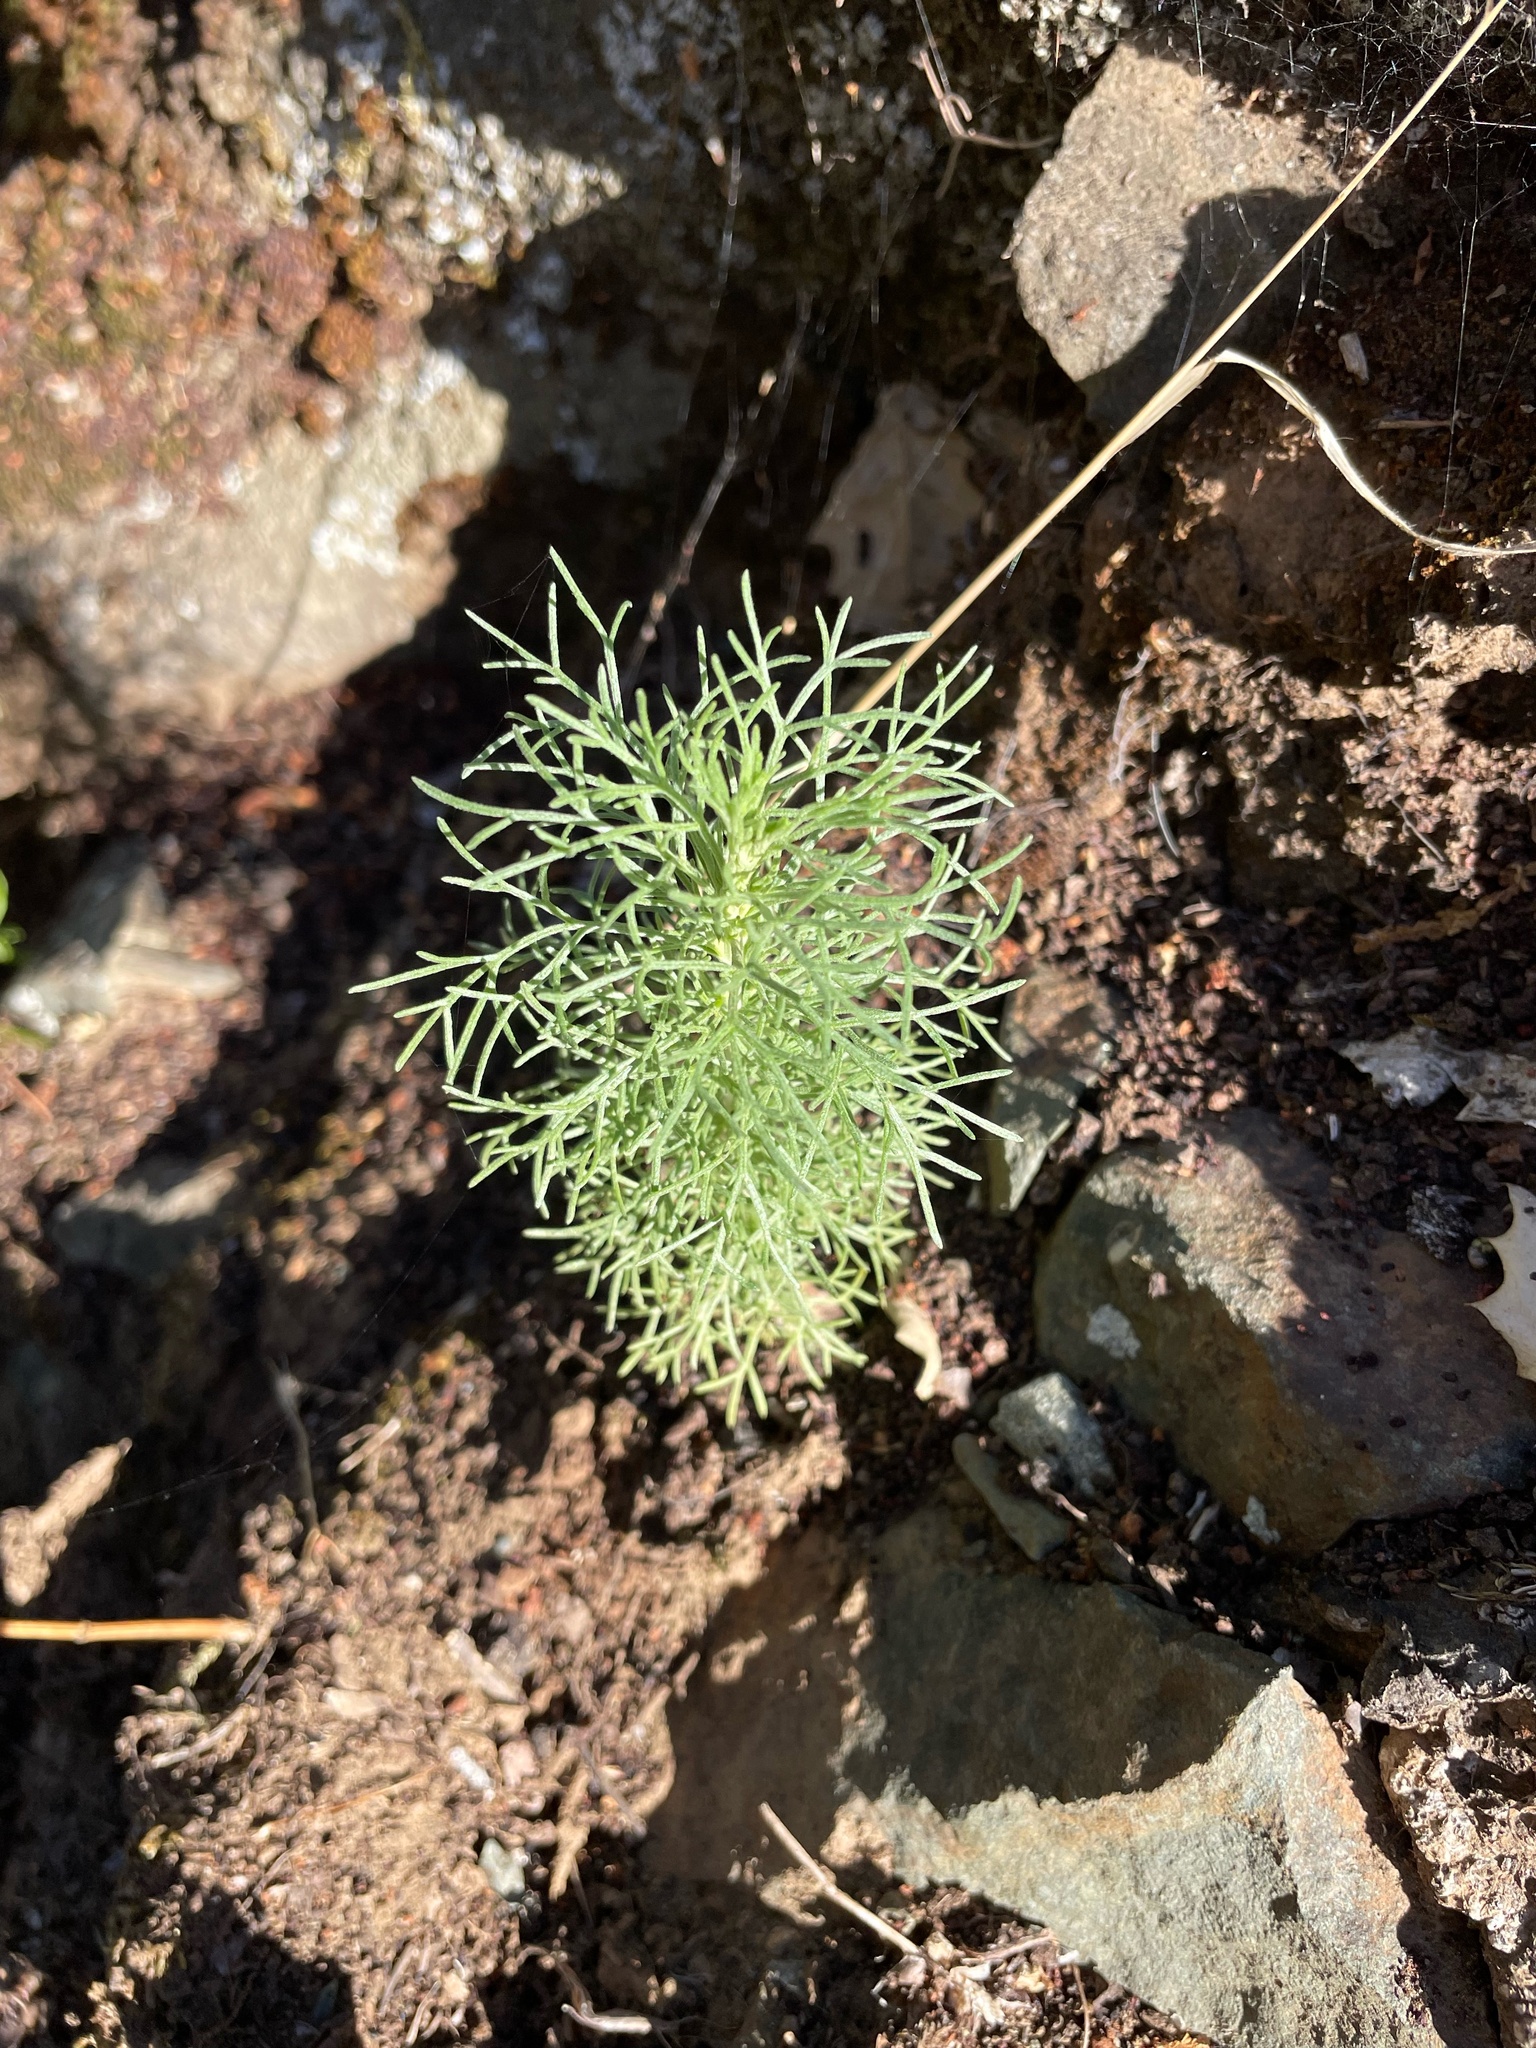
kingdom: Plantae
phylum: Tracheophyta
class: Magnoliopsida
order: Asterales
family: Asteraceae
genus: Artemisia
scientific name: Artemisia californica
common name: California sagebrush
